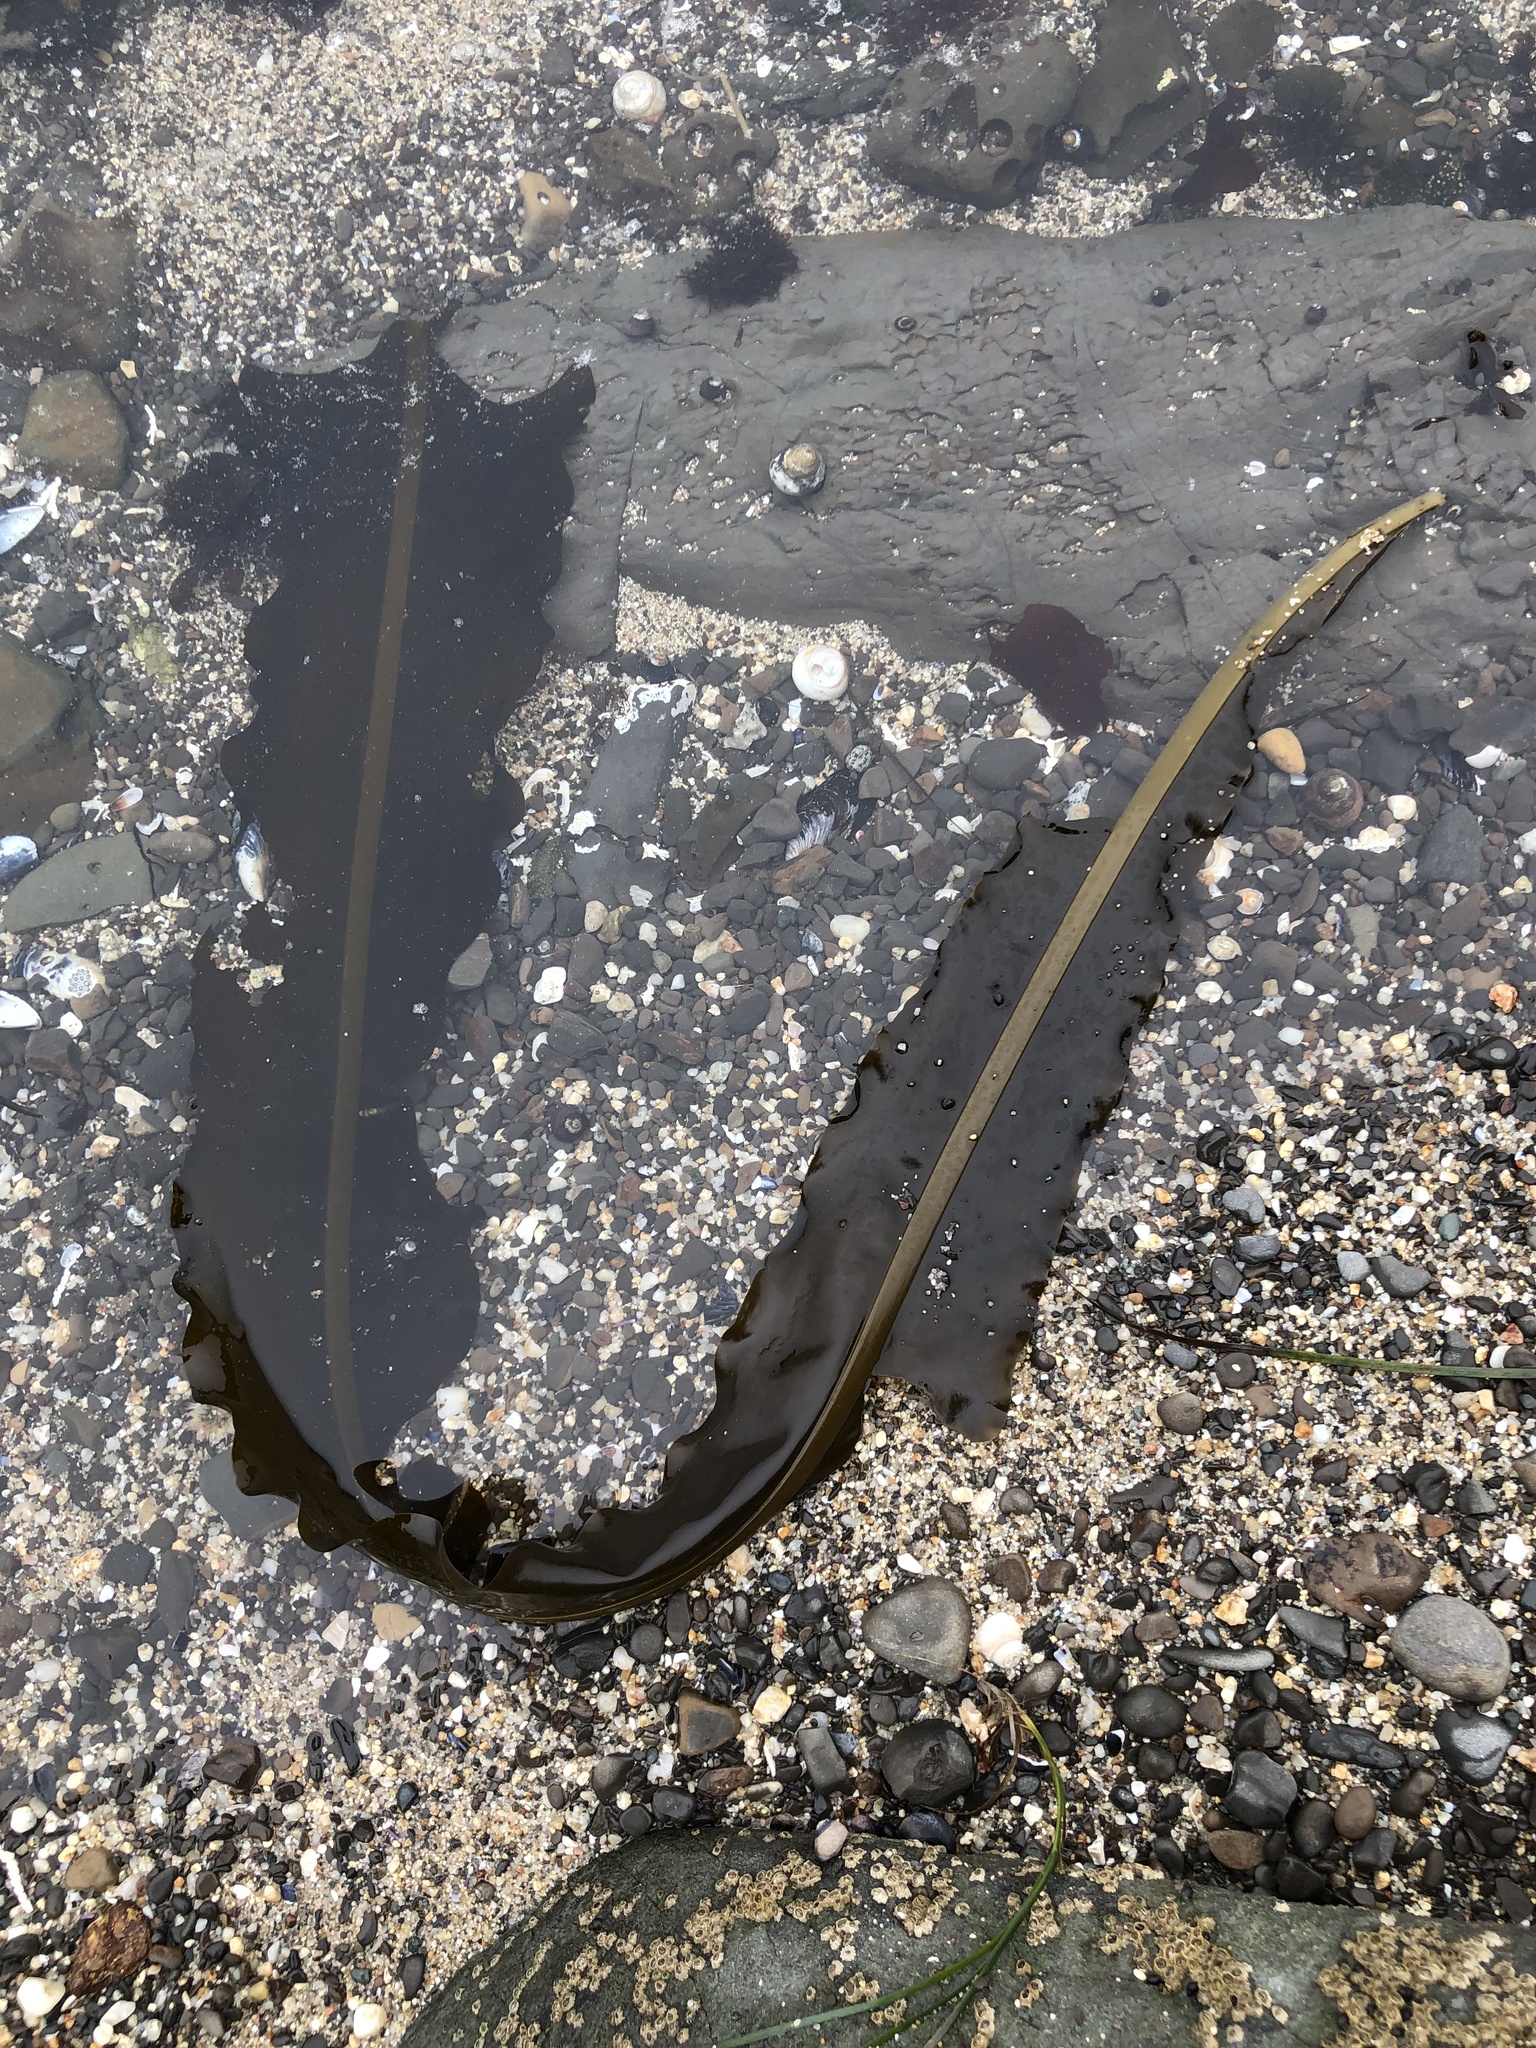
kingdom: Chromista
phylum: Ochrophyta
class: Phaeophyceae
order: Laminariales
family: Alariaceae
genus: Alaria
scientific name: Alaria marginata
